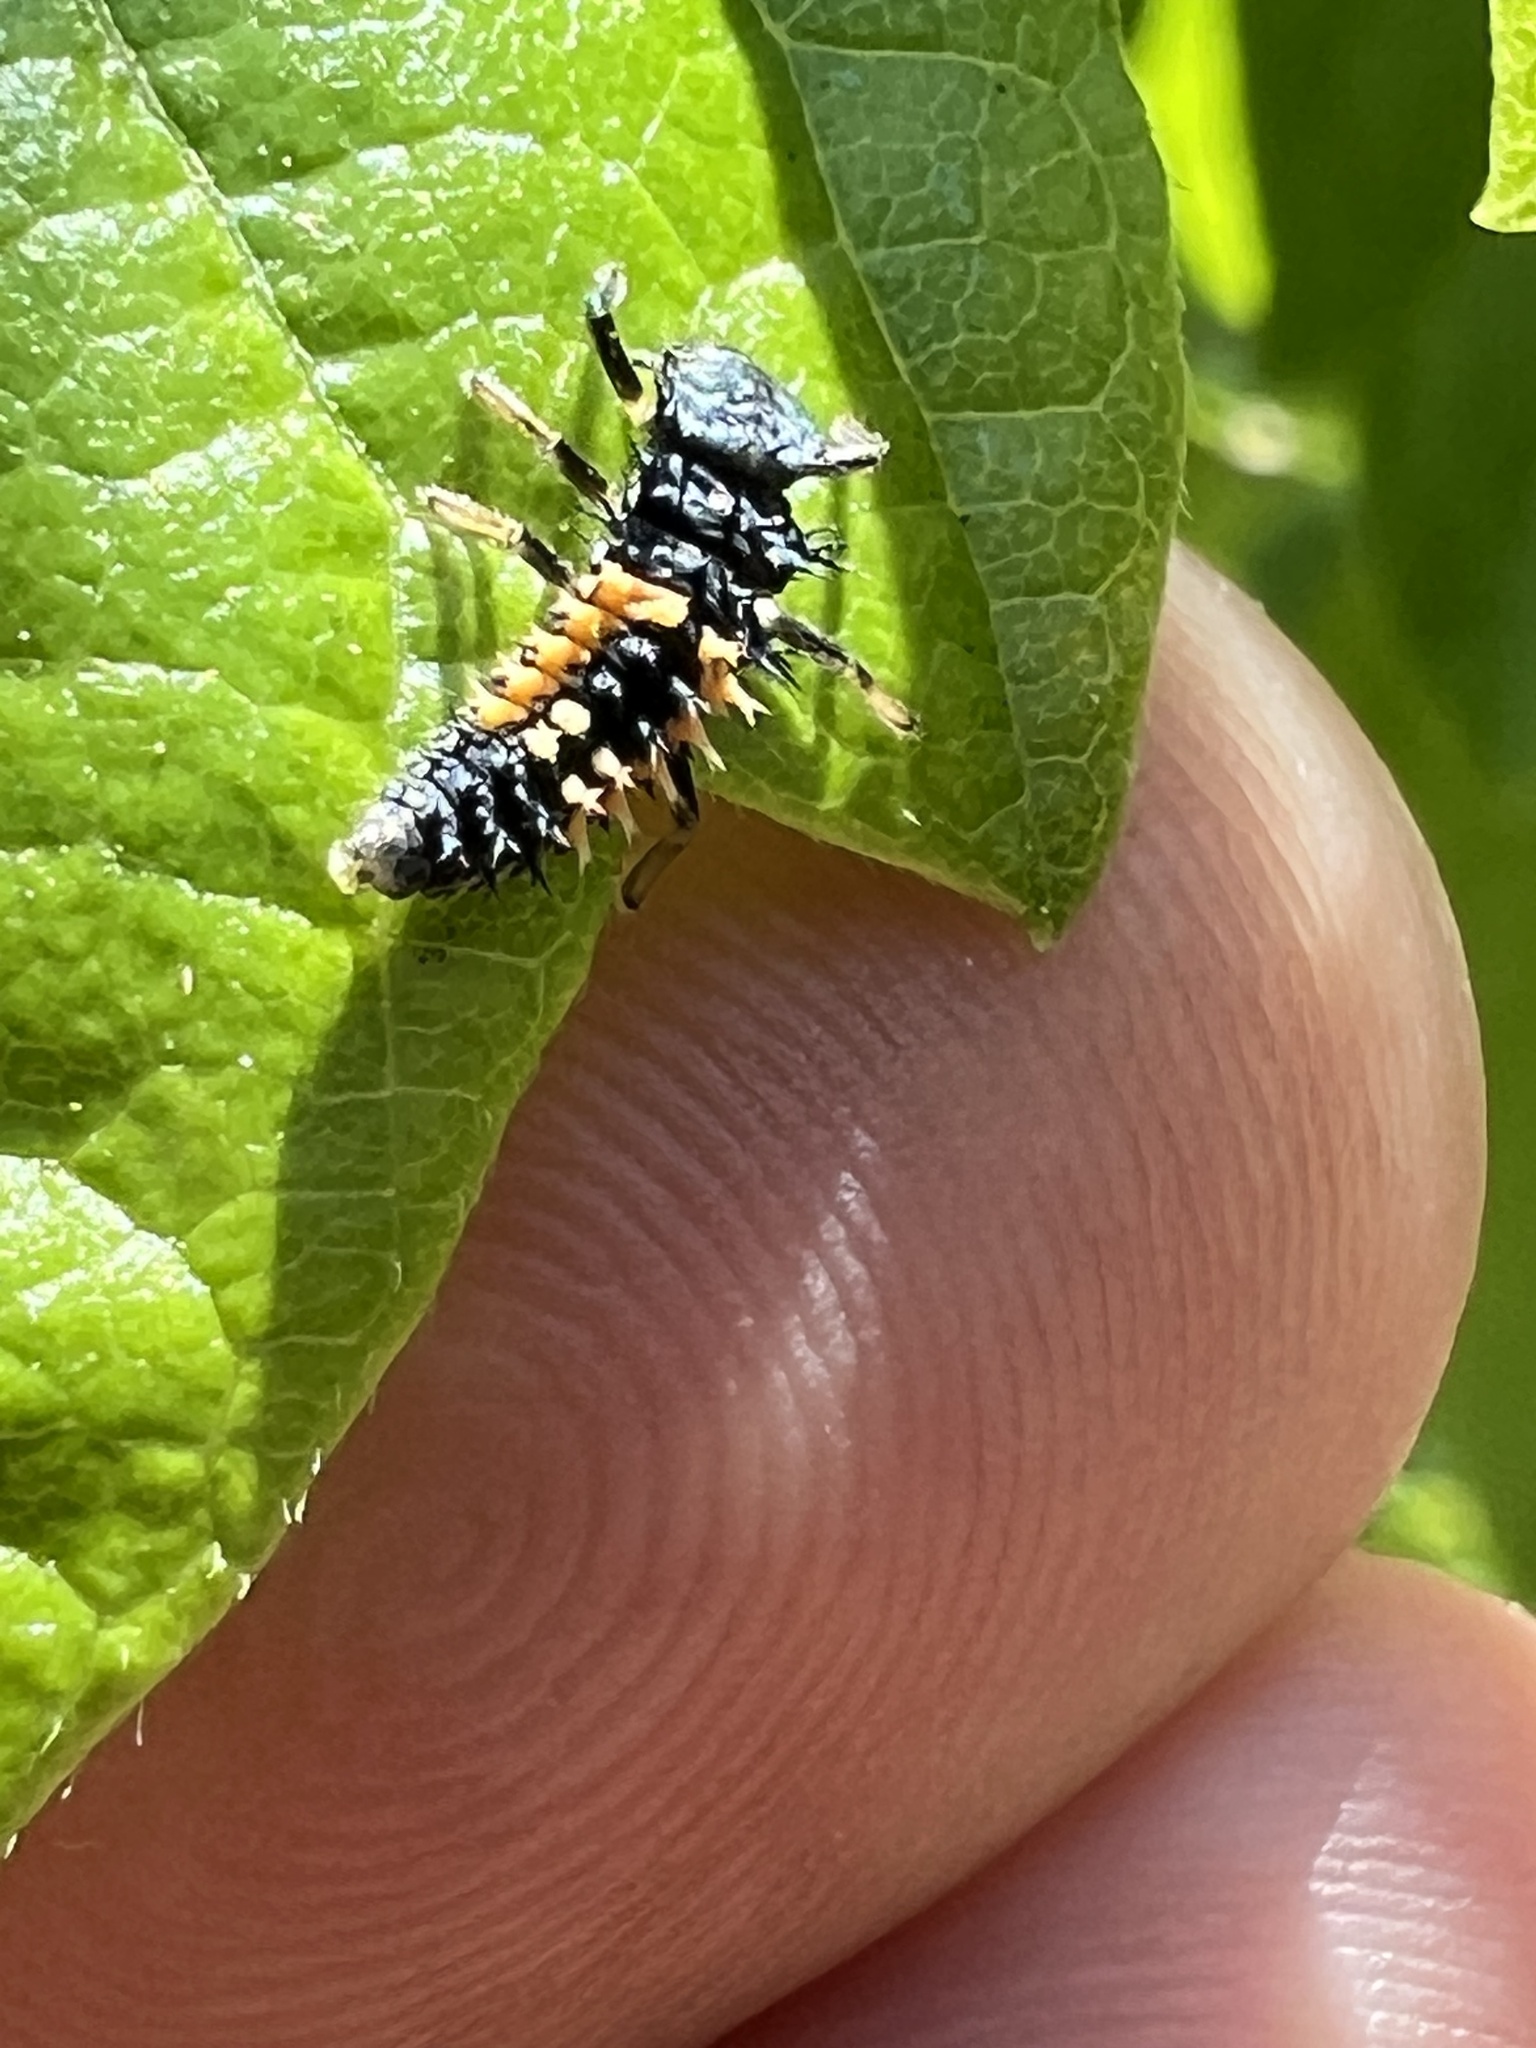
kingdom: Animalia
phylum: Arthropoda
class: Insecta
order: Coleoptera
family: Coccinellidae
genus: Harmonia
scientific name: Harmonia axyridis
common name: Harlequin ladybird
